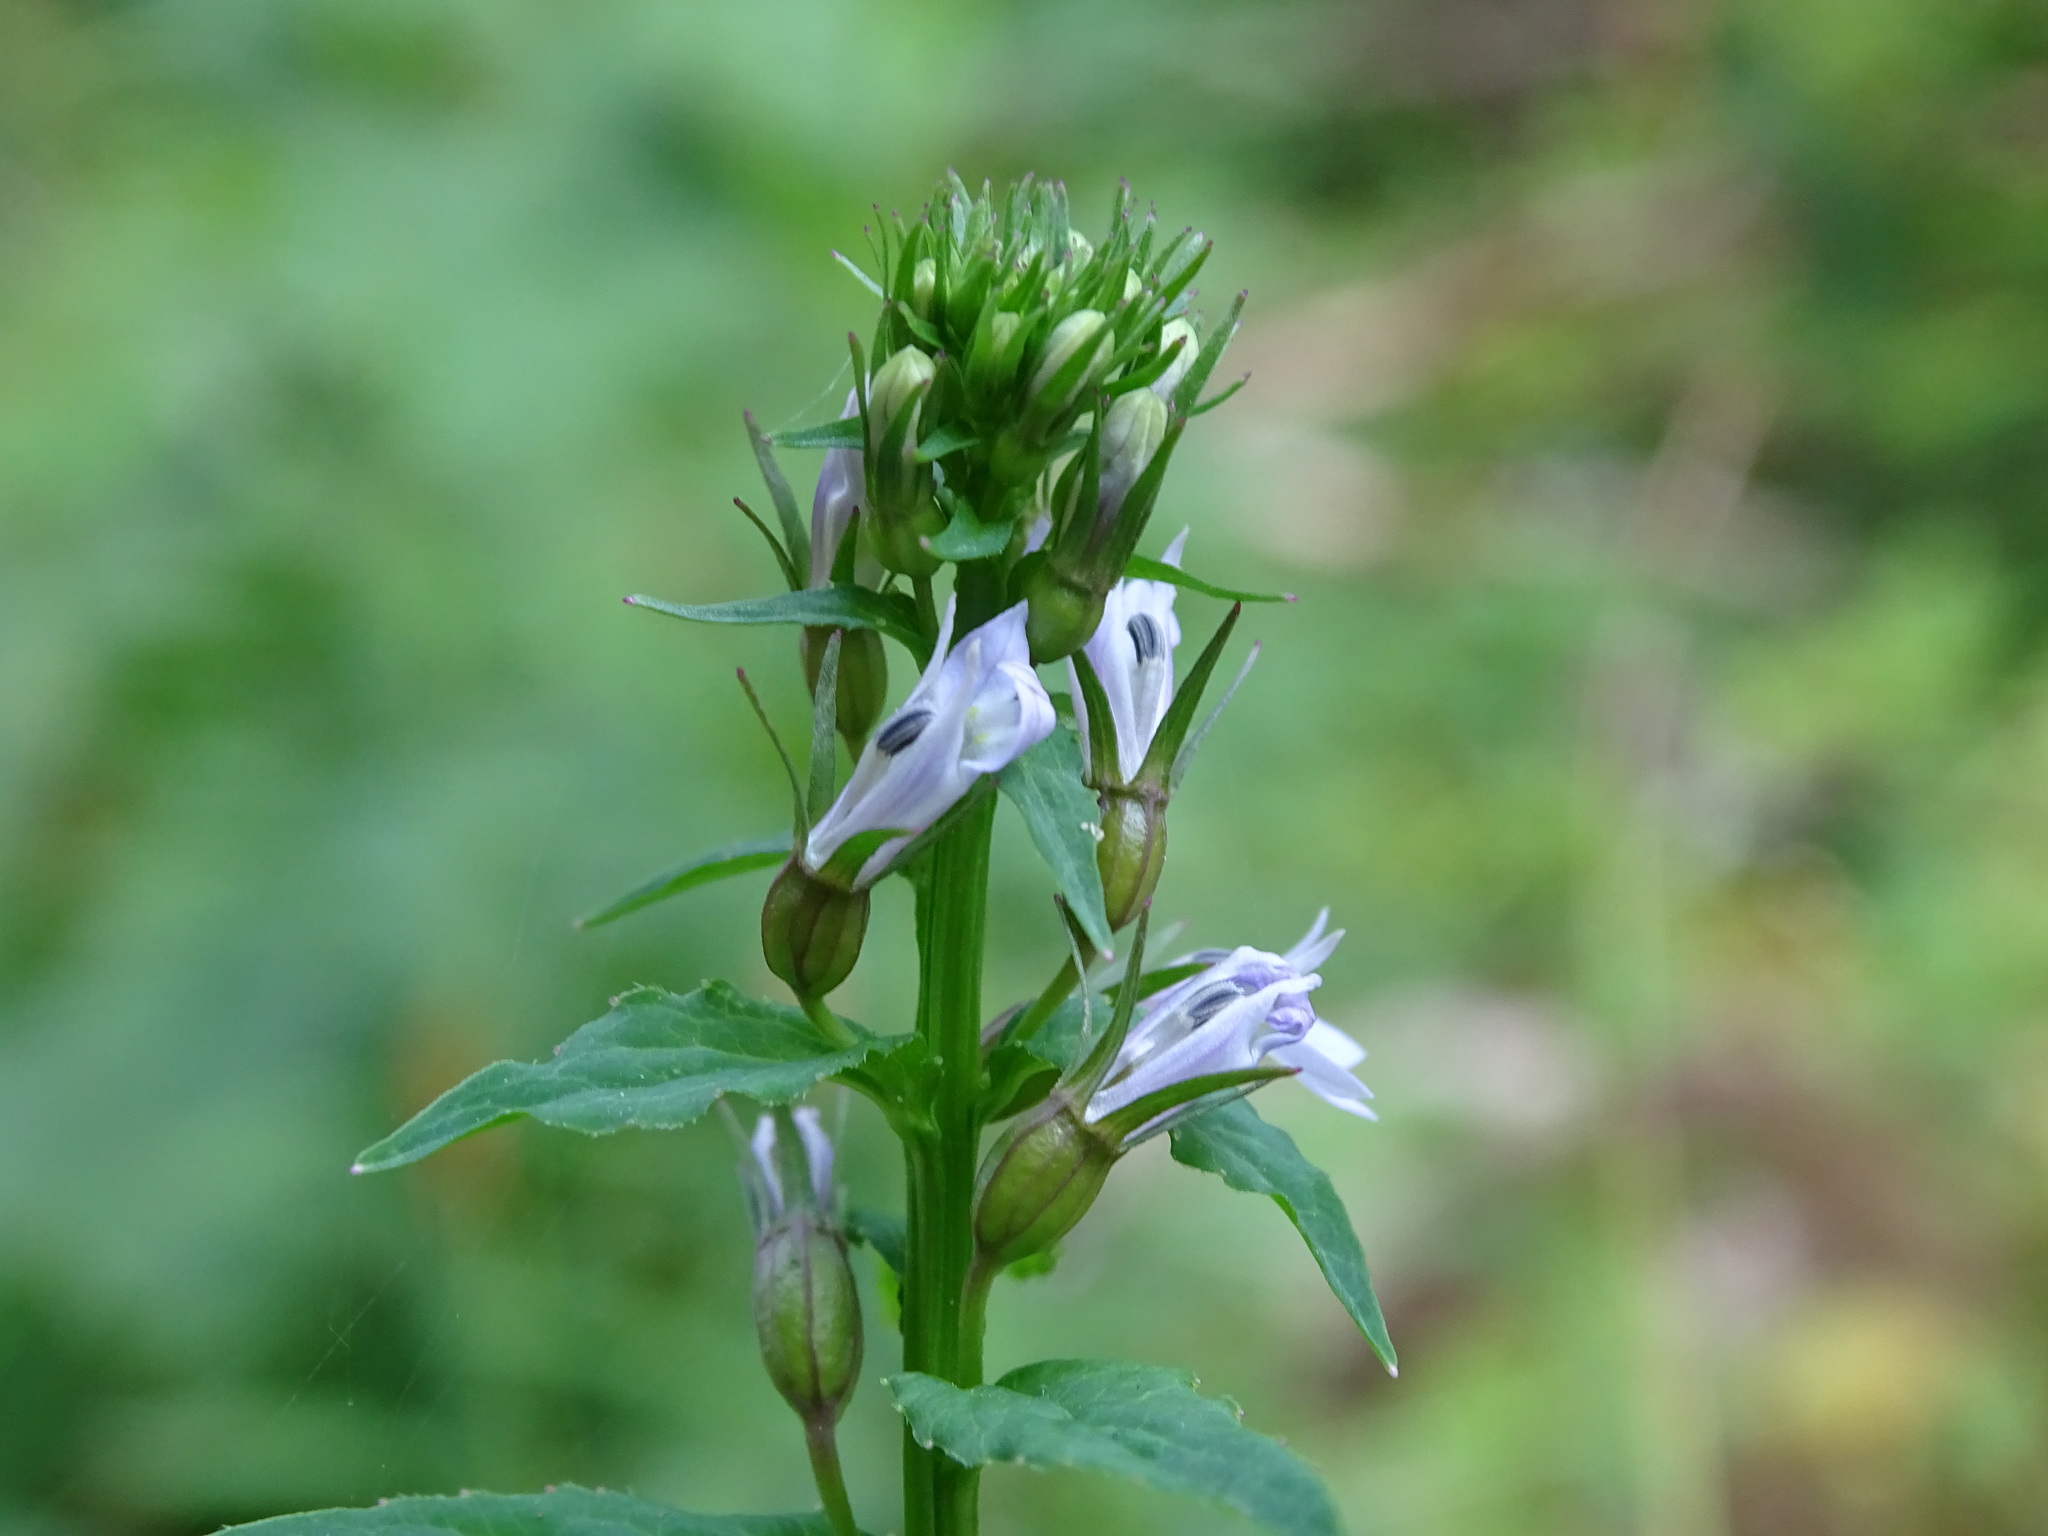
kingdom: Plantae
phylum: Tracheophyta
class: Magnoliopsida
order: Asterales
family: Campanulaceae
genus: Lobelia
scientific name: Lobelia inflata
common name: Indian tobacco
